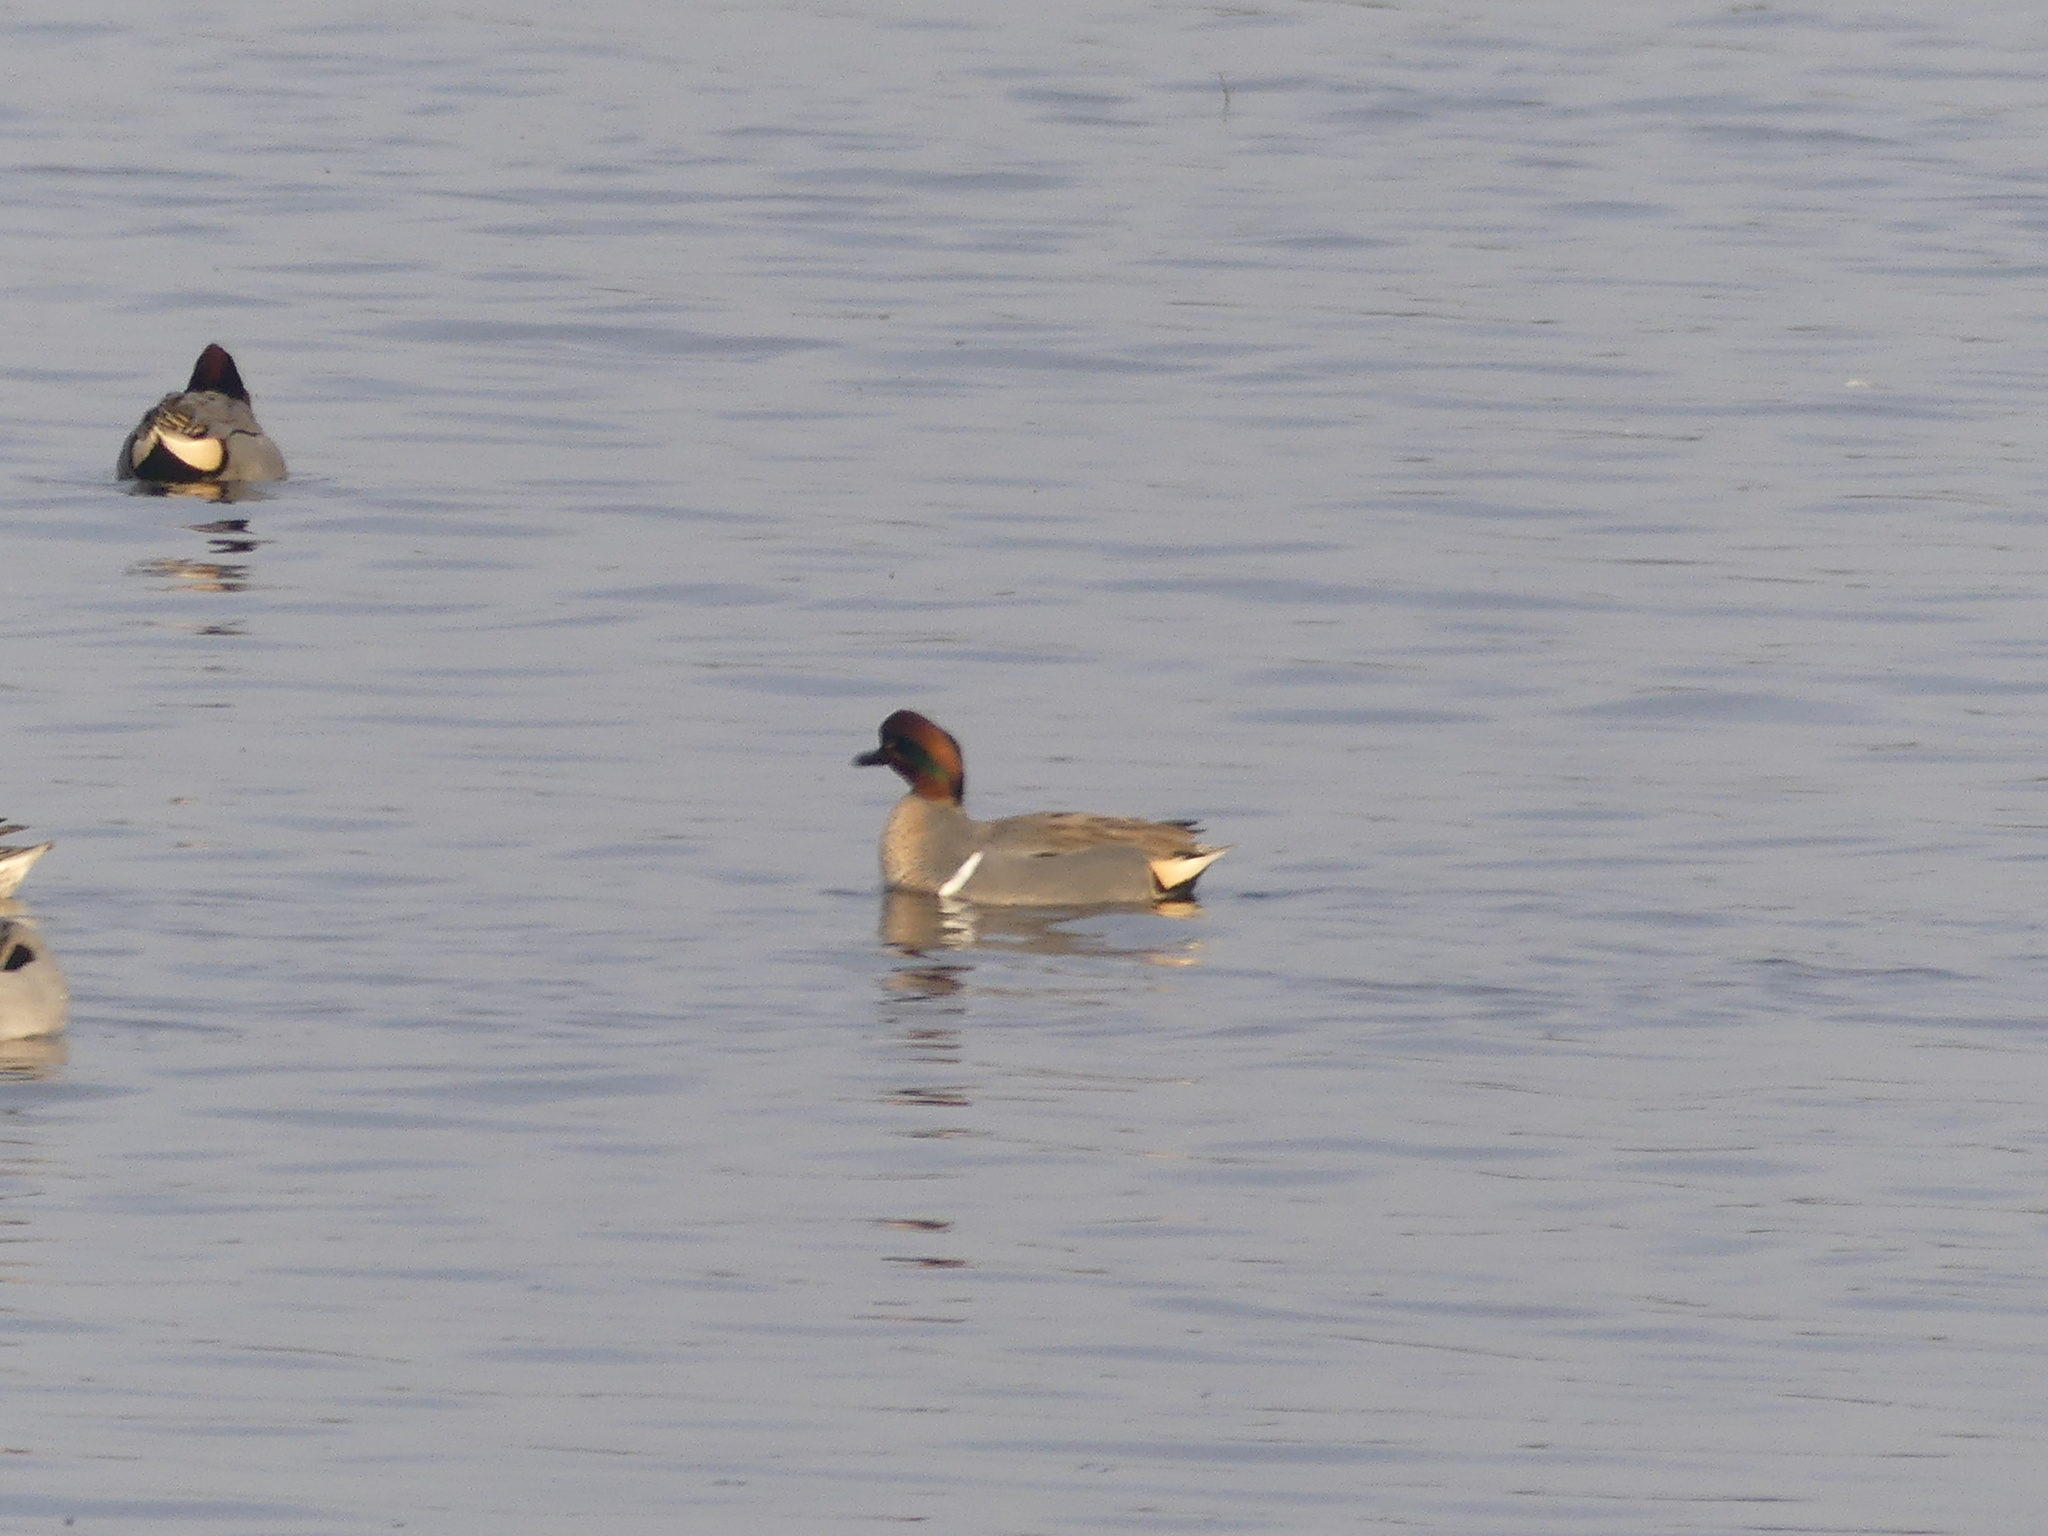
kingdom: Animalia
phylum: Chordata
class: Aves
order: Anseriformes
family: Anatidae
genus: Anas
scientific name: Anas crecca
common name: Eurasian teal
